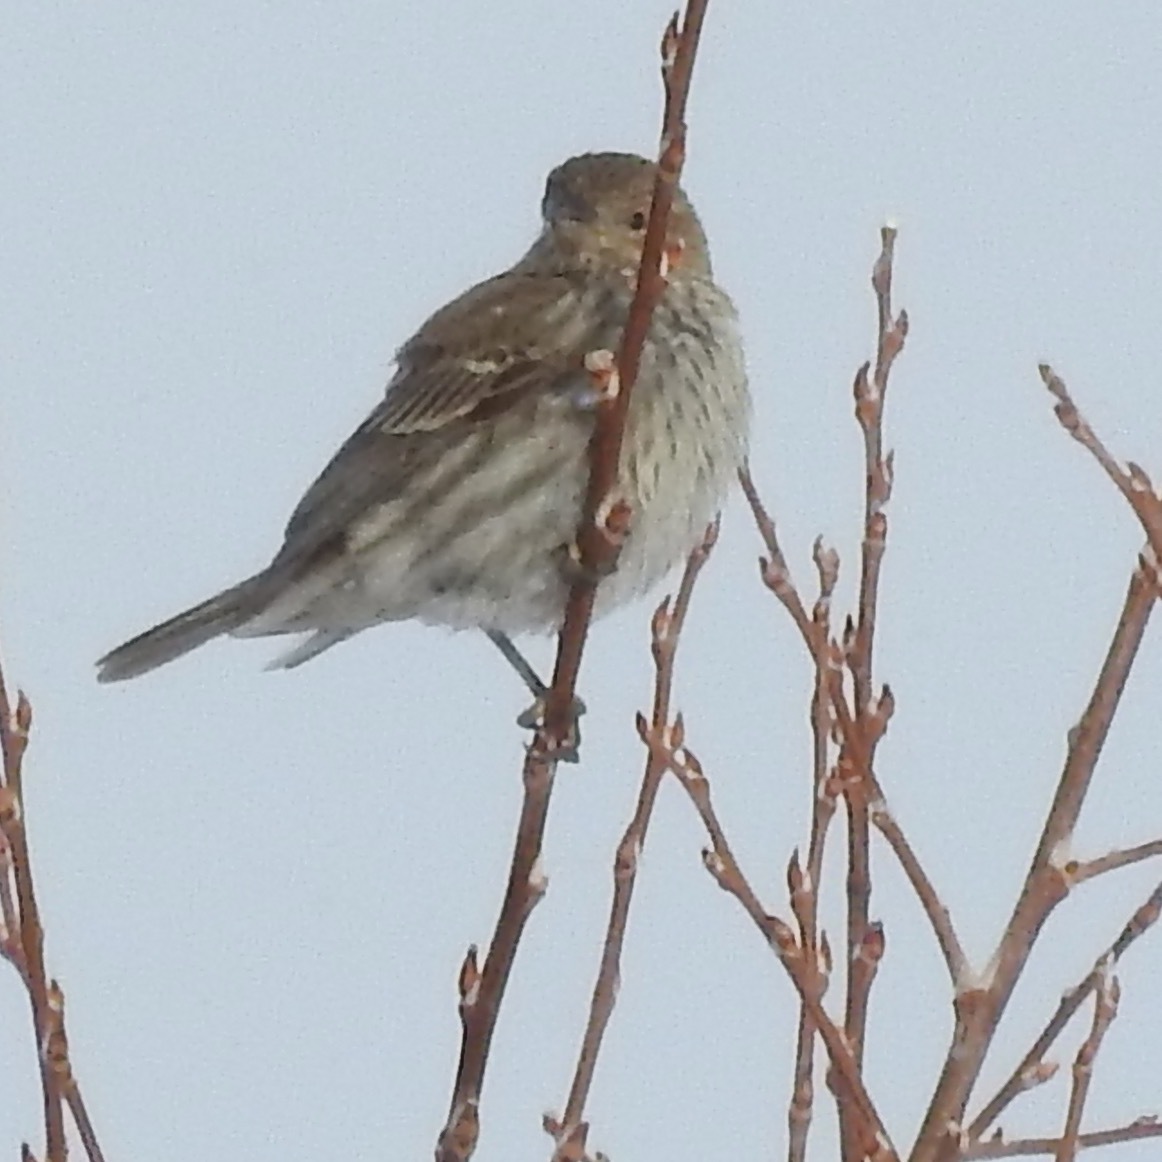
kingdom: Animalia
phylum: Chordata
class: Aves
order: Passeriformes
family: Fringillidae
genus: Haemorhous
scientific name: Haemorhous mexicanus
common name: House finch
